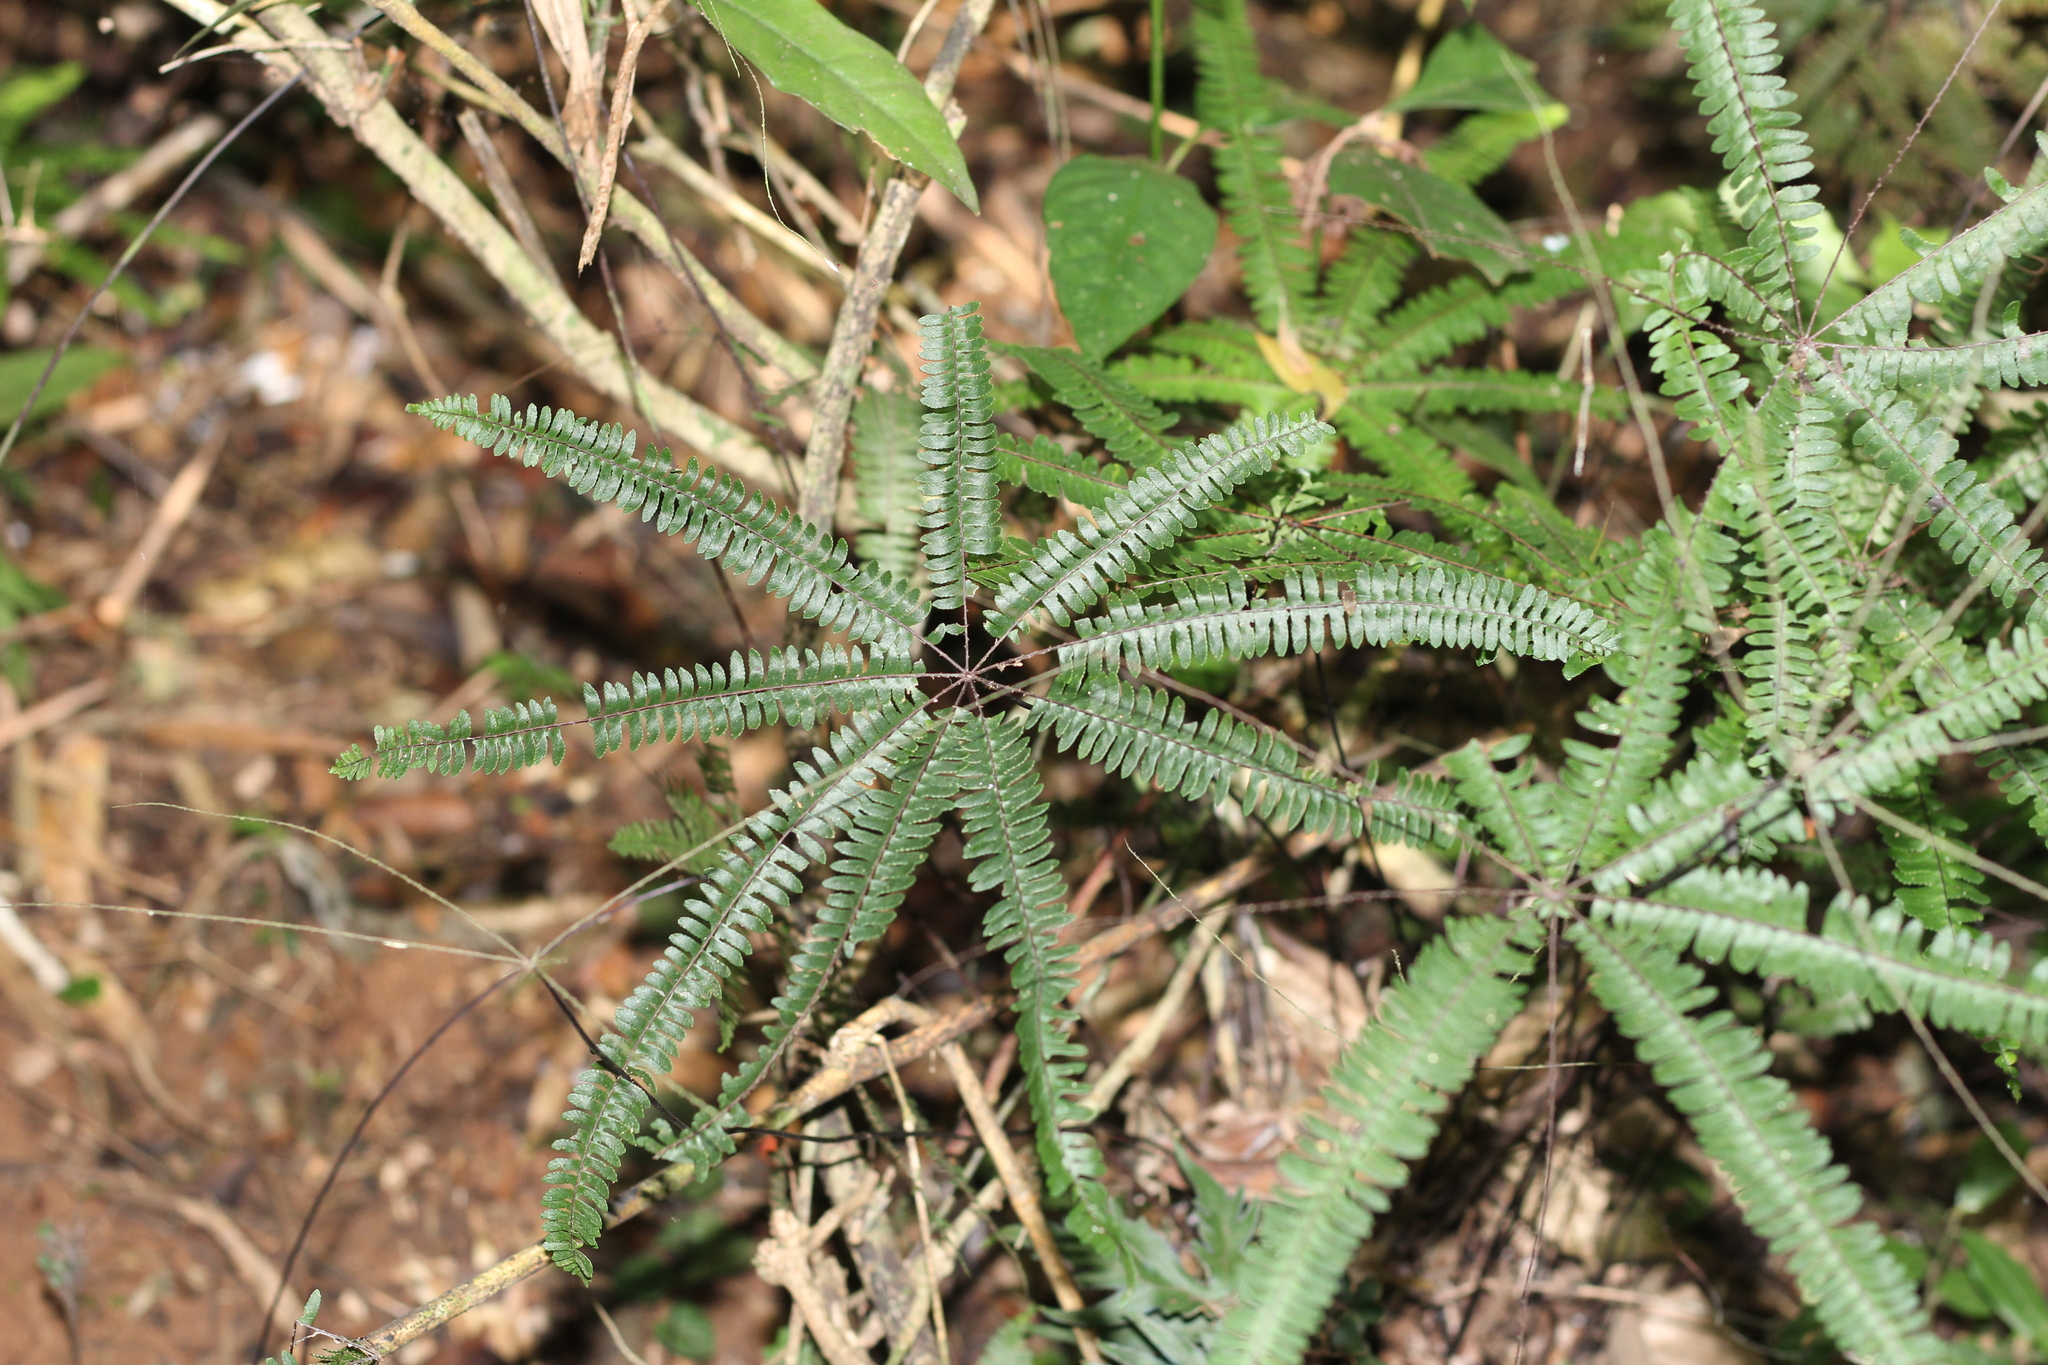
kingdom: Plantae
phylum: Tracheophyta
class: Polypodiopsida
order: Polypodiales
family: Pteridaceae
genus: Adiantopsis
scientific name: Adiantopsis radiata
